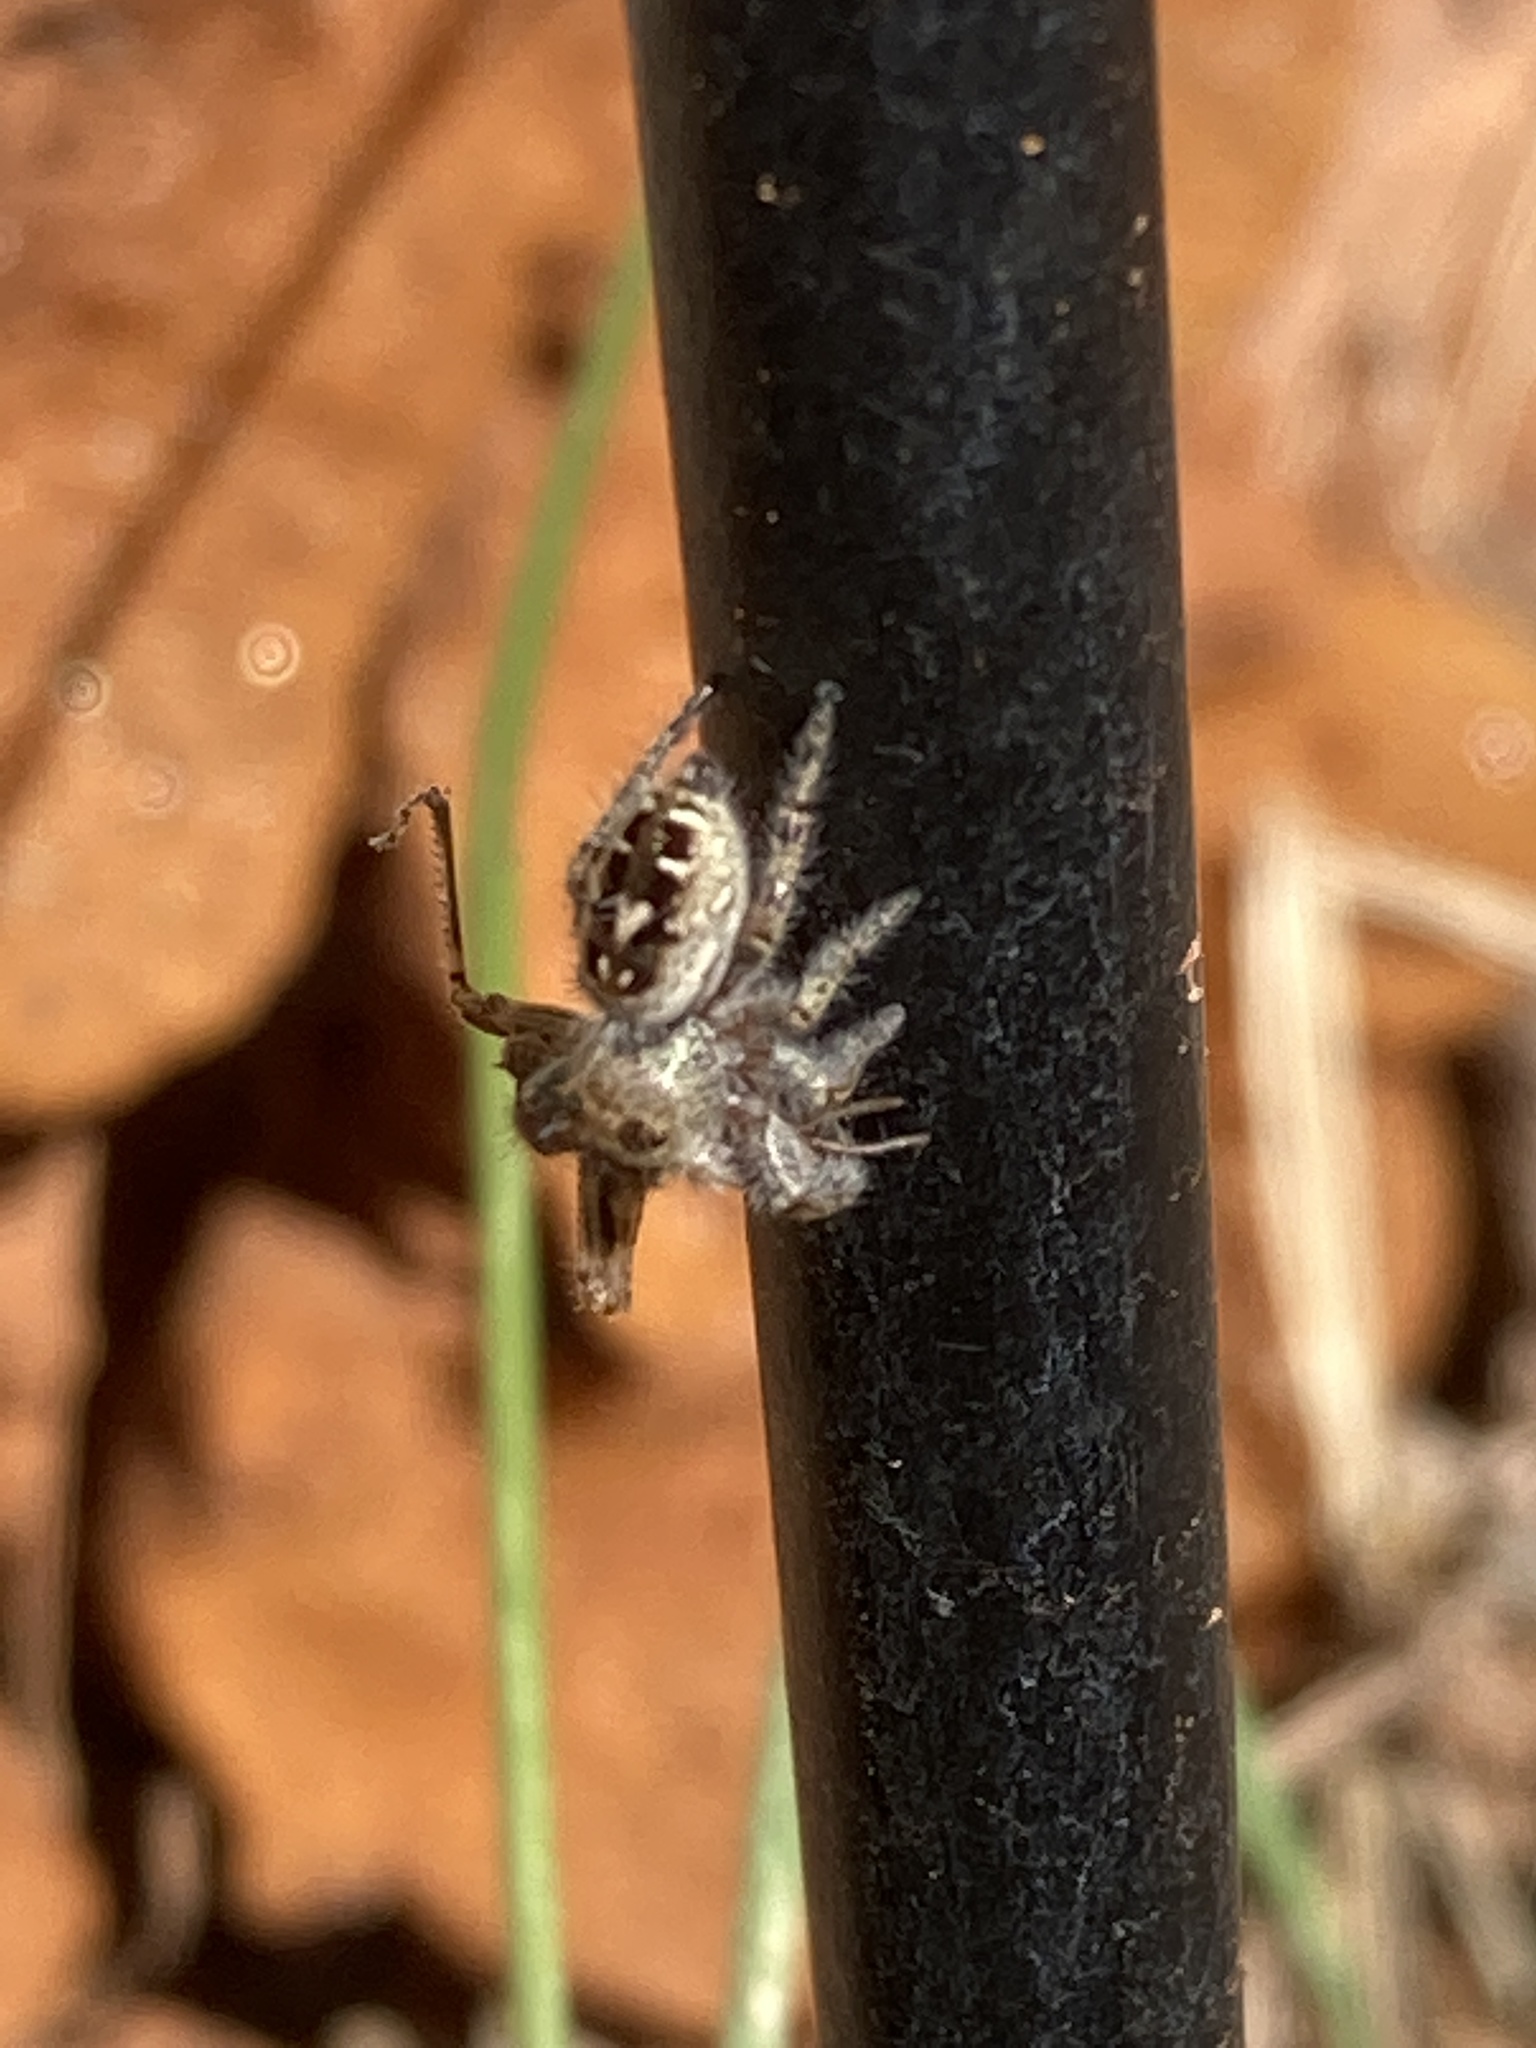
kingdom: Animalia
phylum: Arthropoda
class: Arachnida
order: Araneae
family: Salticidae
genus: Phidippus
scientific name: Phidippus carolinensis
